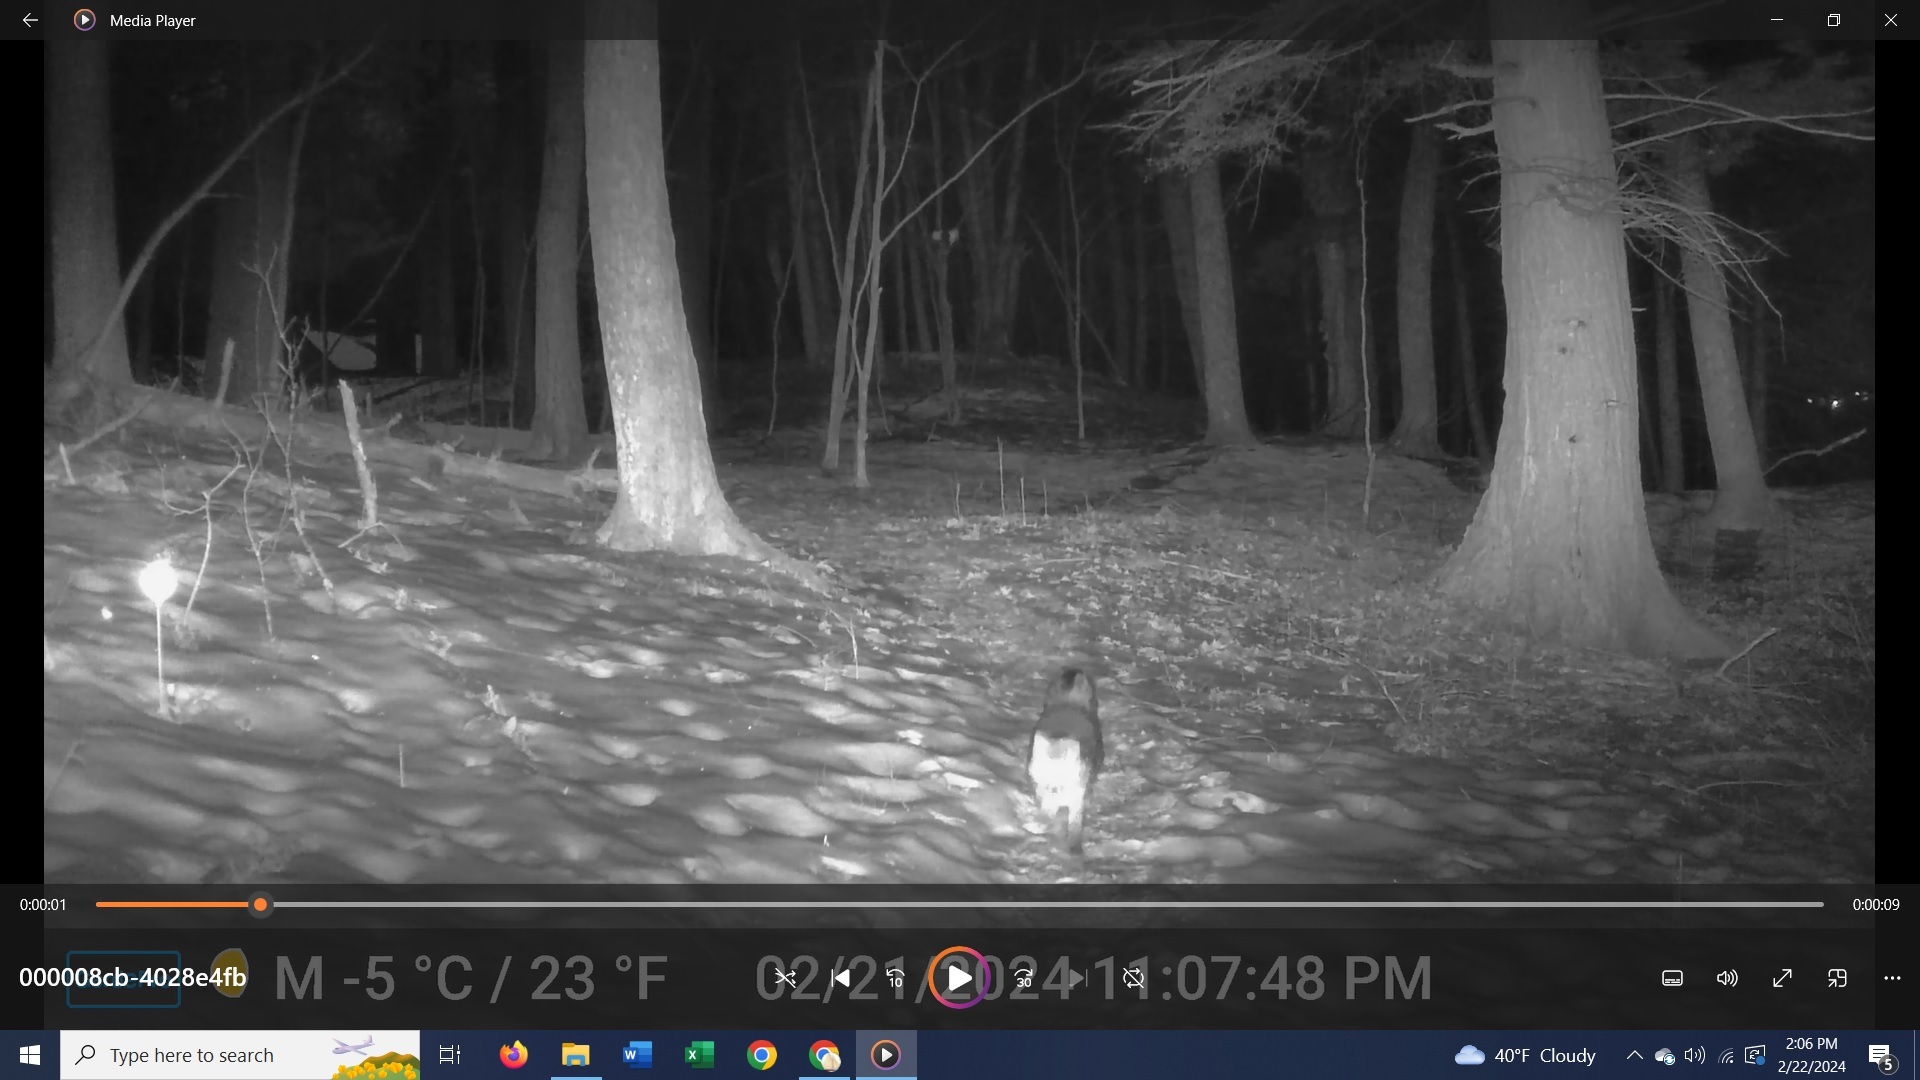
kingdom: Animalia
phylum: Chordata
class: Mammalia
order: Carnivora
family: Canidae
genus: Urocyon
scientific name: Urocyon cinereoargenteus
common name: Gray fox
